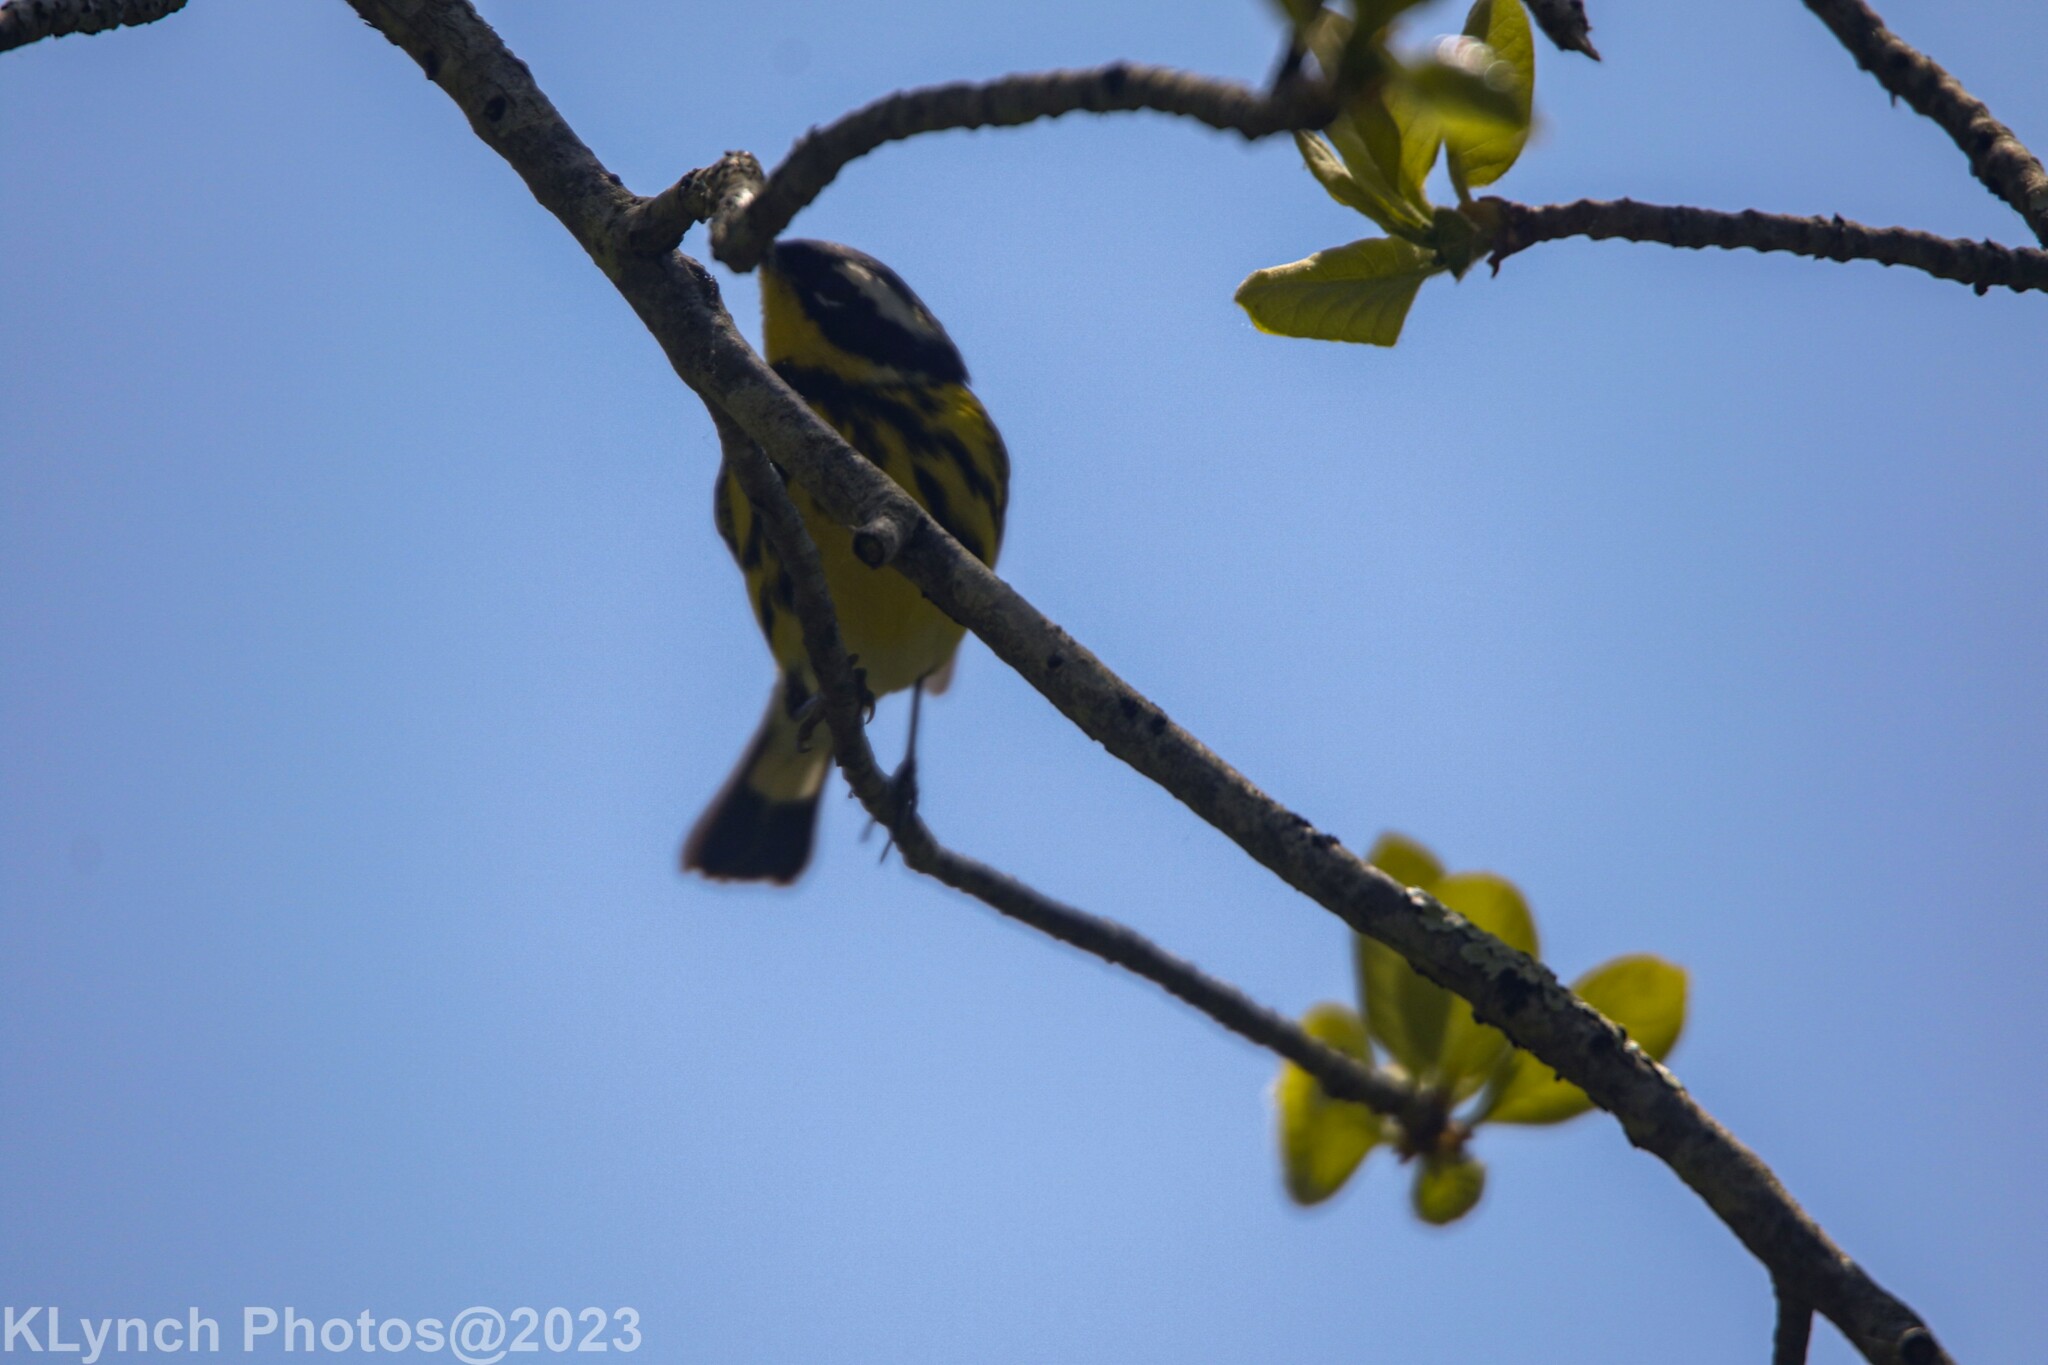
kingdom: Animalia
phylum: Chordata
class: Aves
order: Passeriformes
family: Parulidae
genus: Setophaga
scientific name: Setophaga magnolia
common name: Magnolia warbler
